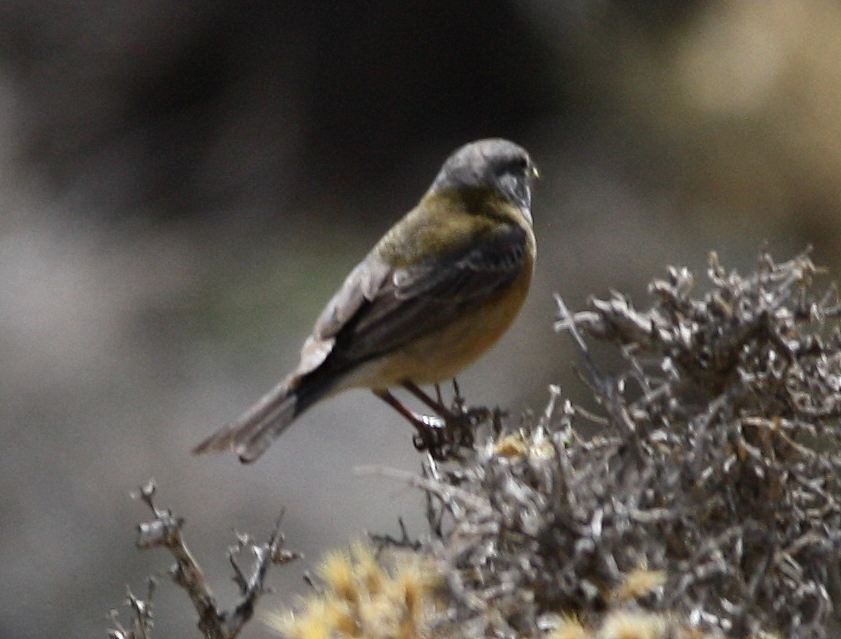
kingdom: Animalia
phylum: Chordata
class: Aves
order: Passeriformes
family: Thraupidae
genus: Phrygilus
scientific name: Phrygilus gayi
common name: Grey-hooded sierra finch
